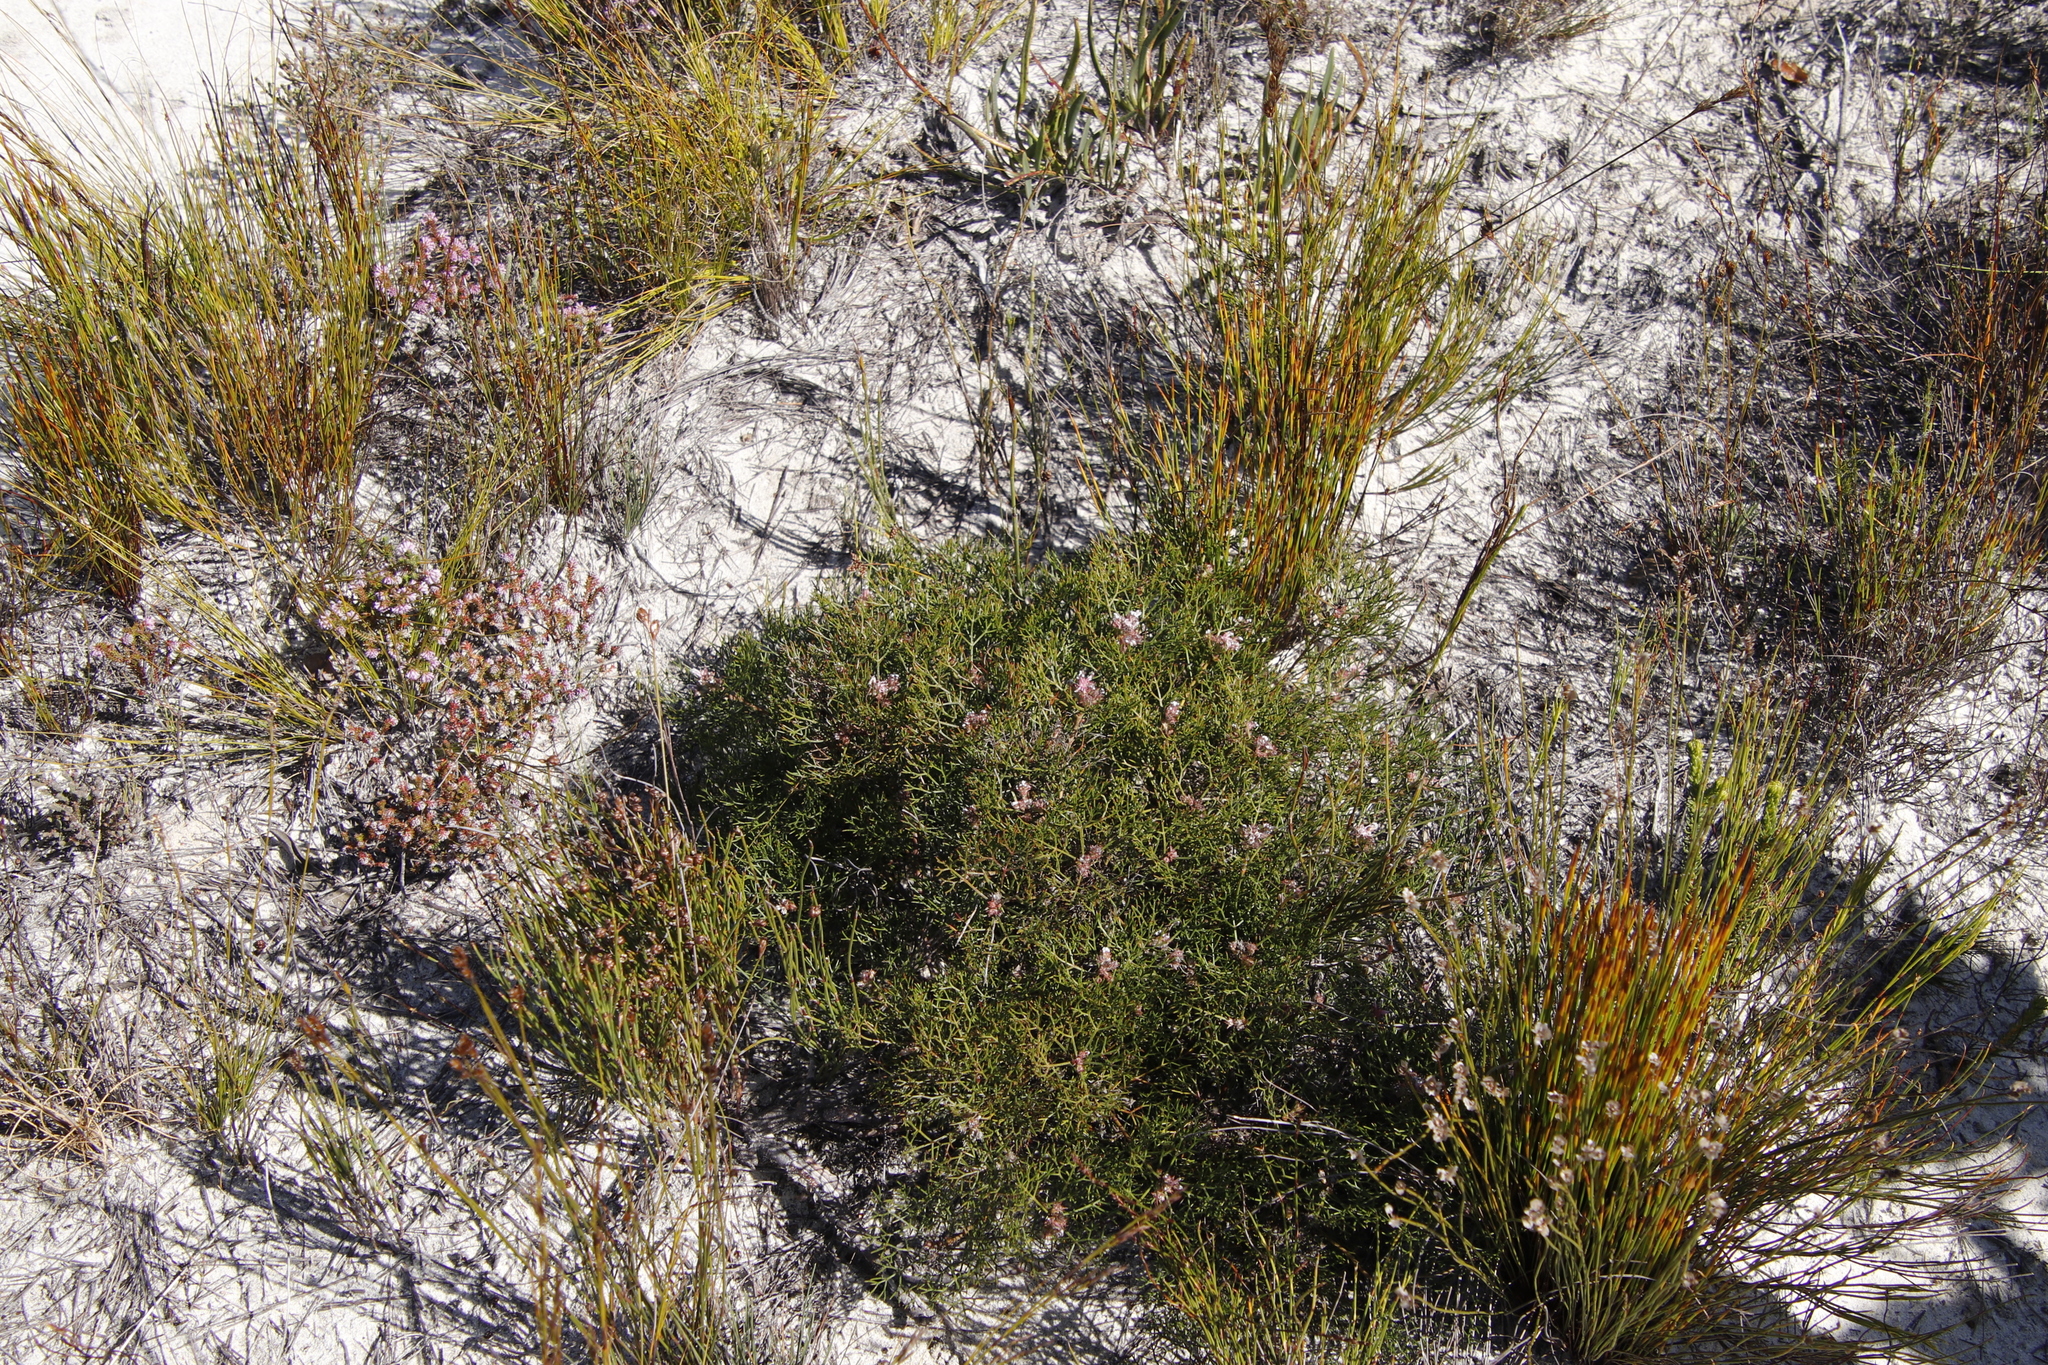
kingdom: Plantae
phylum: Tracheophyta
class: Magnoliopsida
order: Proteales
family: Proteaceae
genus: Serruria
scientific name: Serruria bolusii
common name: Agulhas spiderhead
